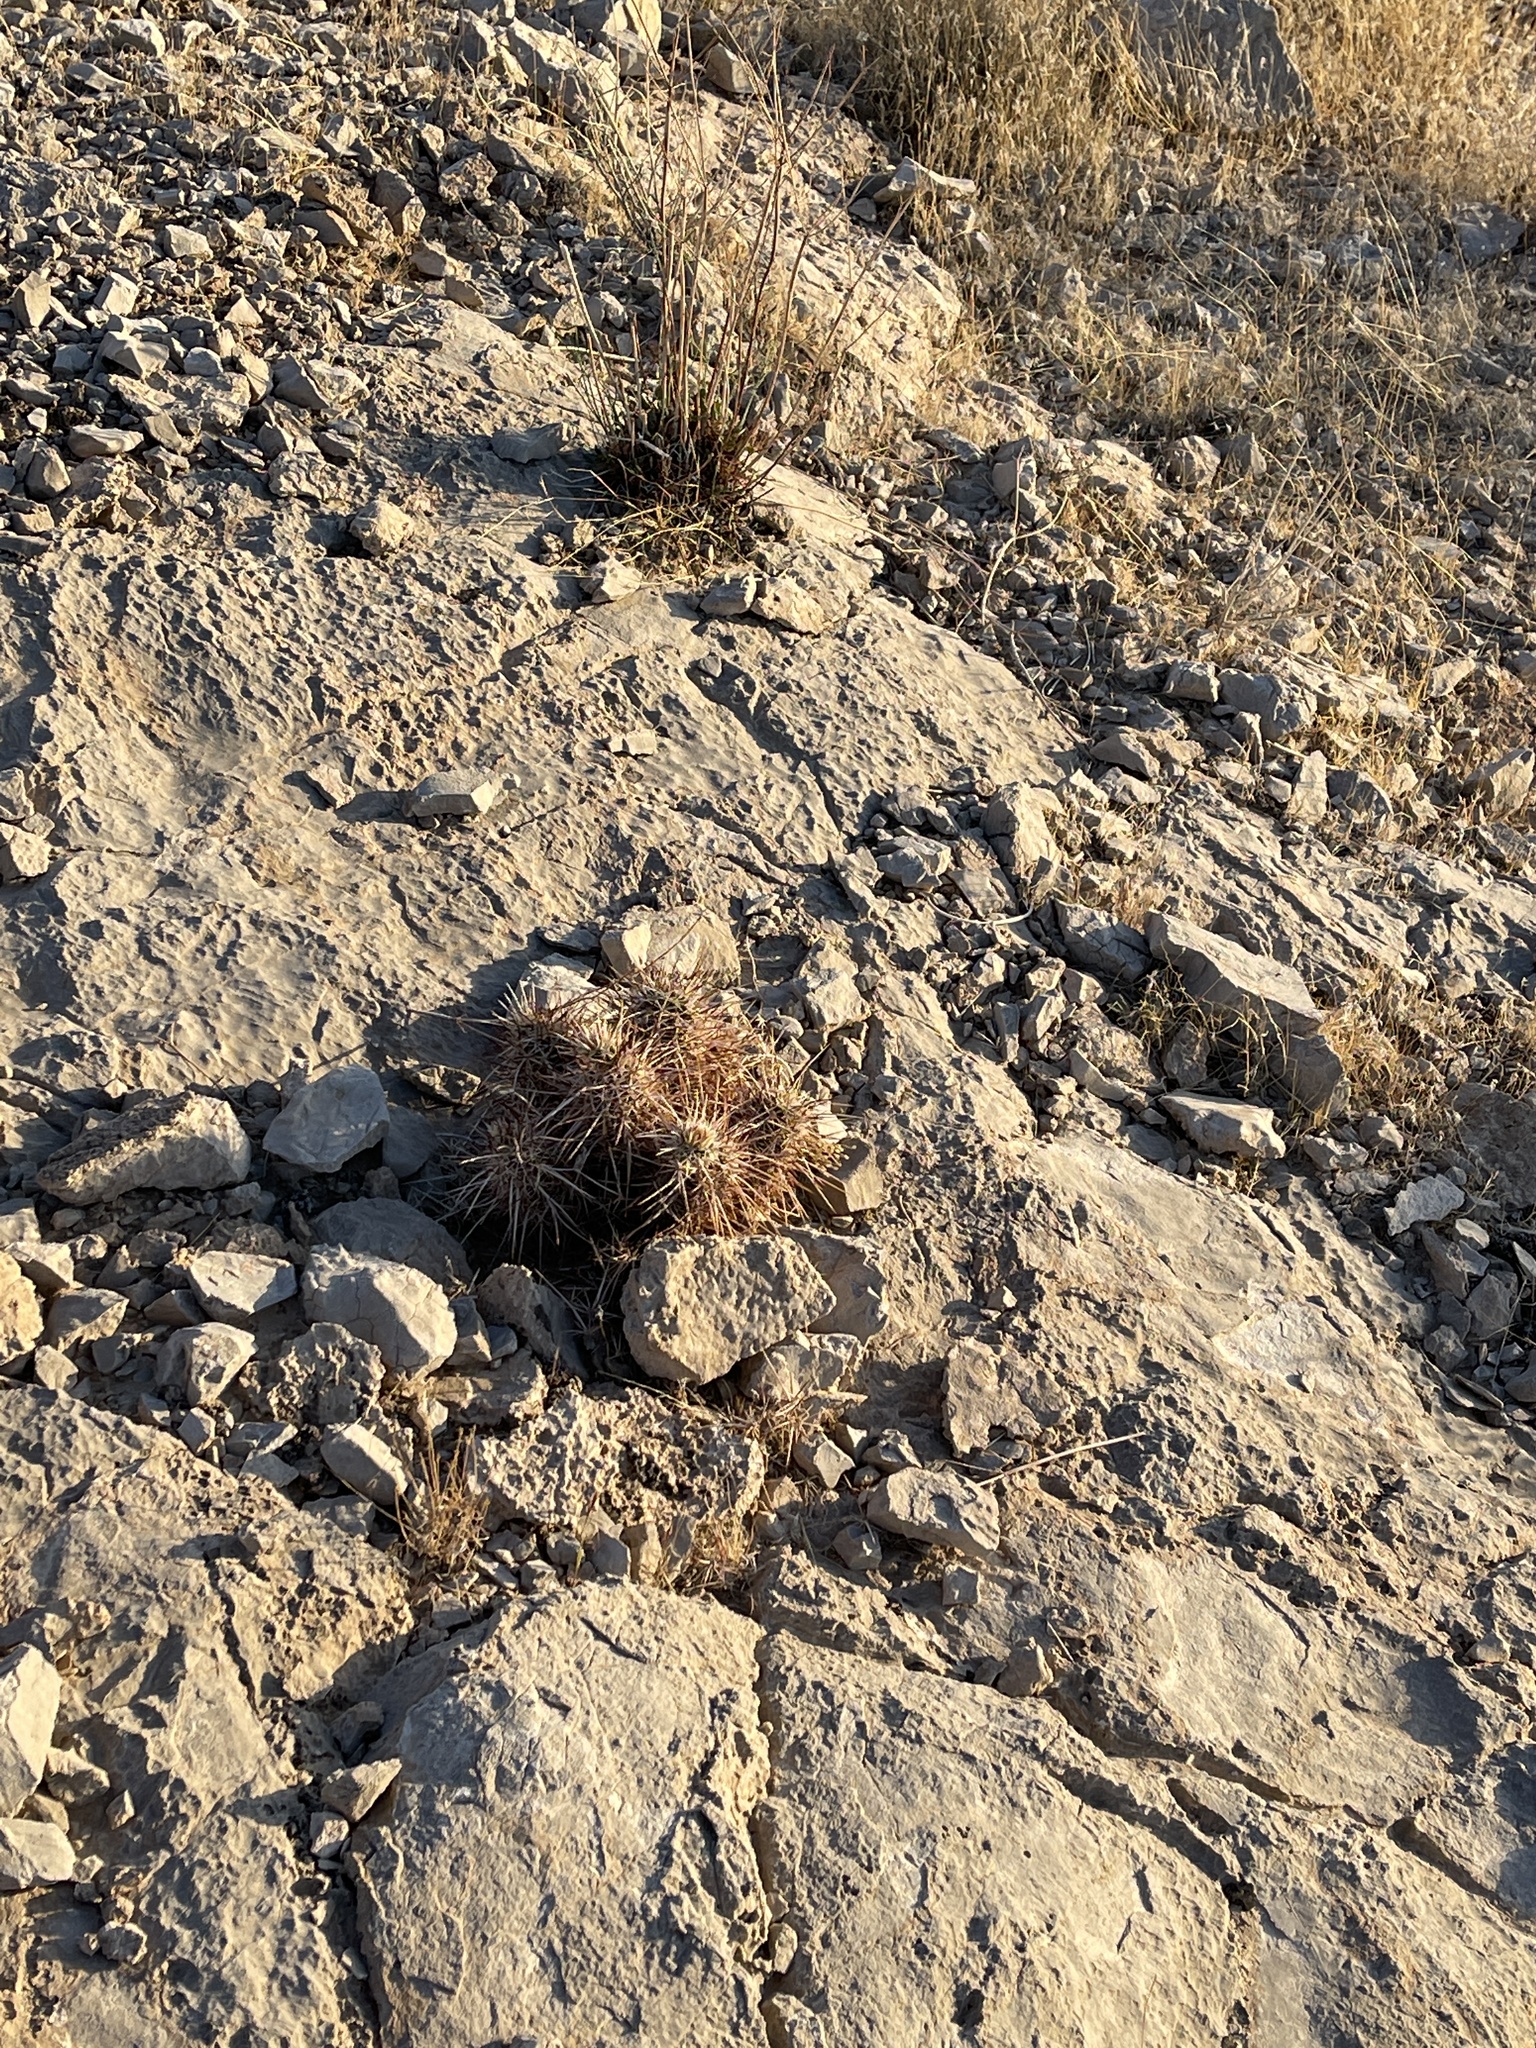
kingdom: Plantae
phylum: Tracheophyta
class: Magnoliopsida
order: Caryophyllales
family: Cactaceae
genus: Echinocereus
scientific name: Echinocereus engelmannii
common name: Engelmann's hedgehog cactus
